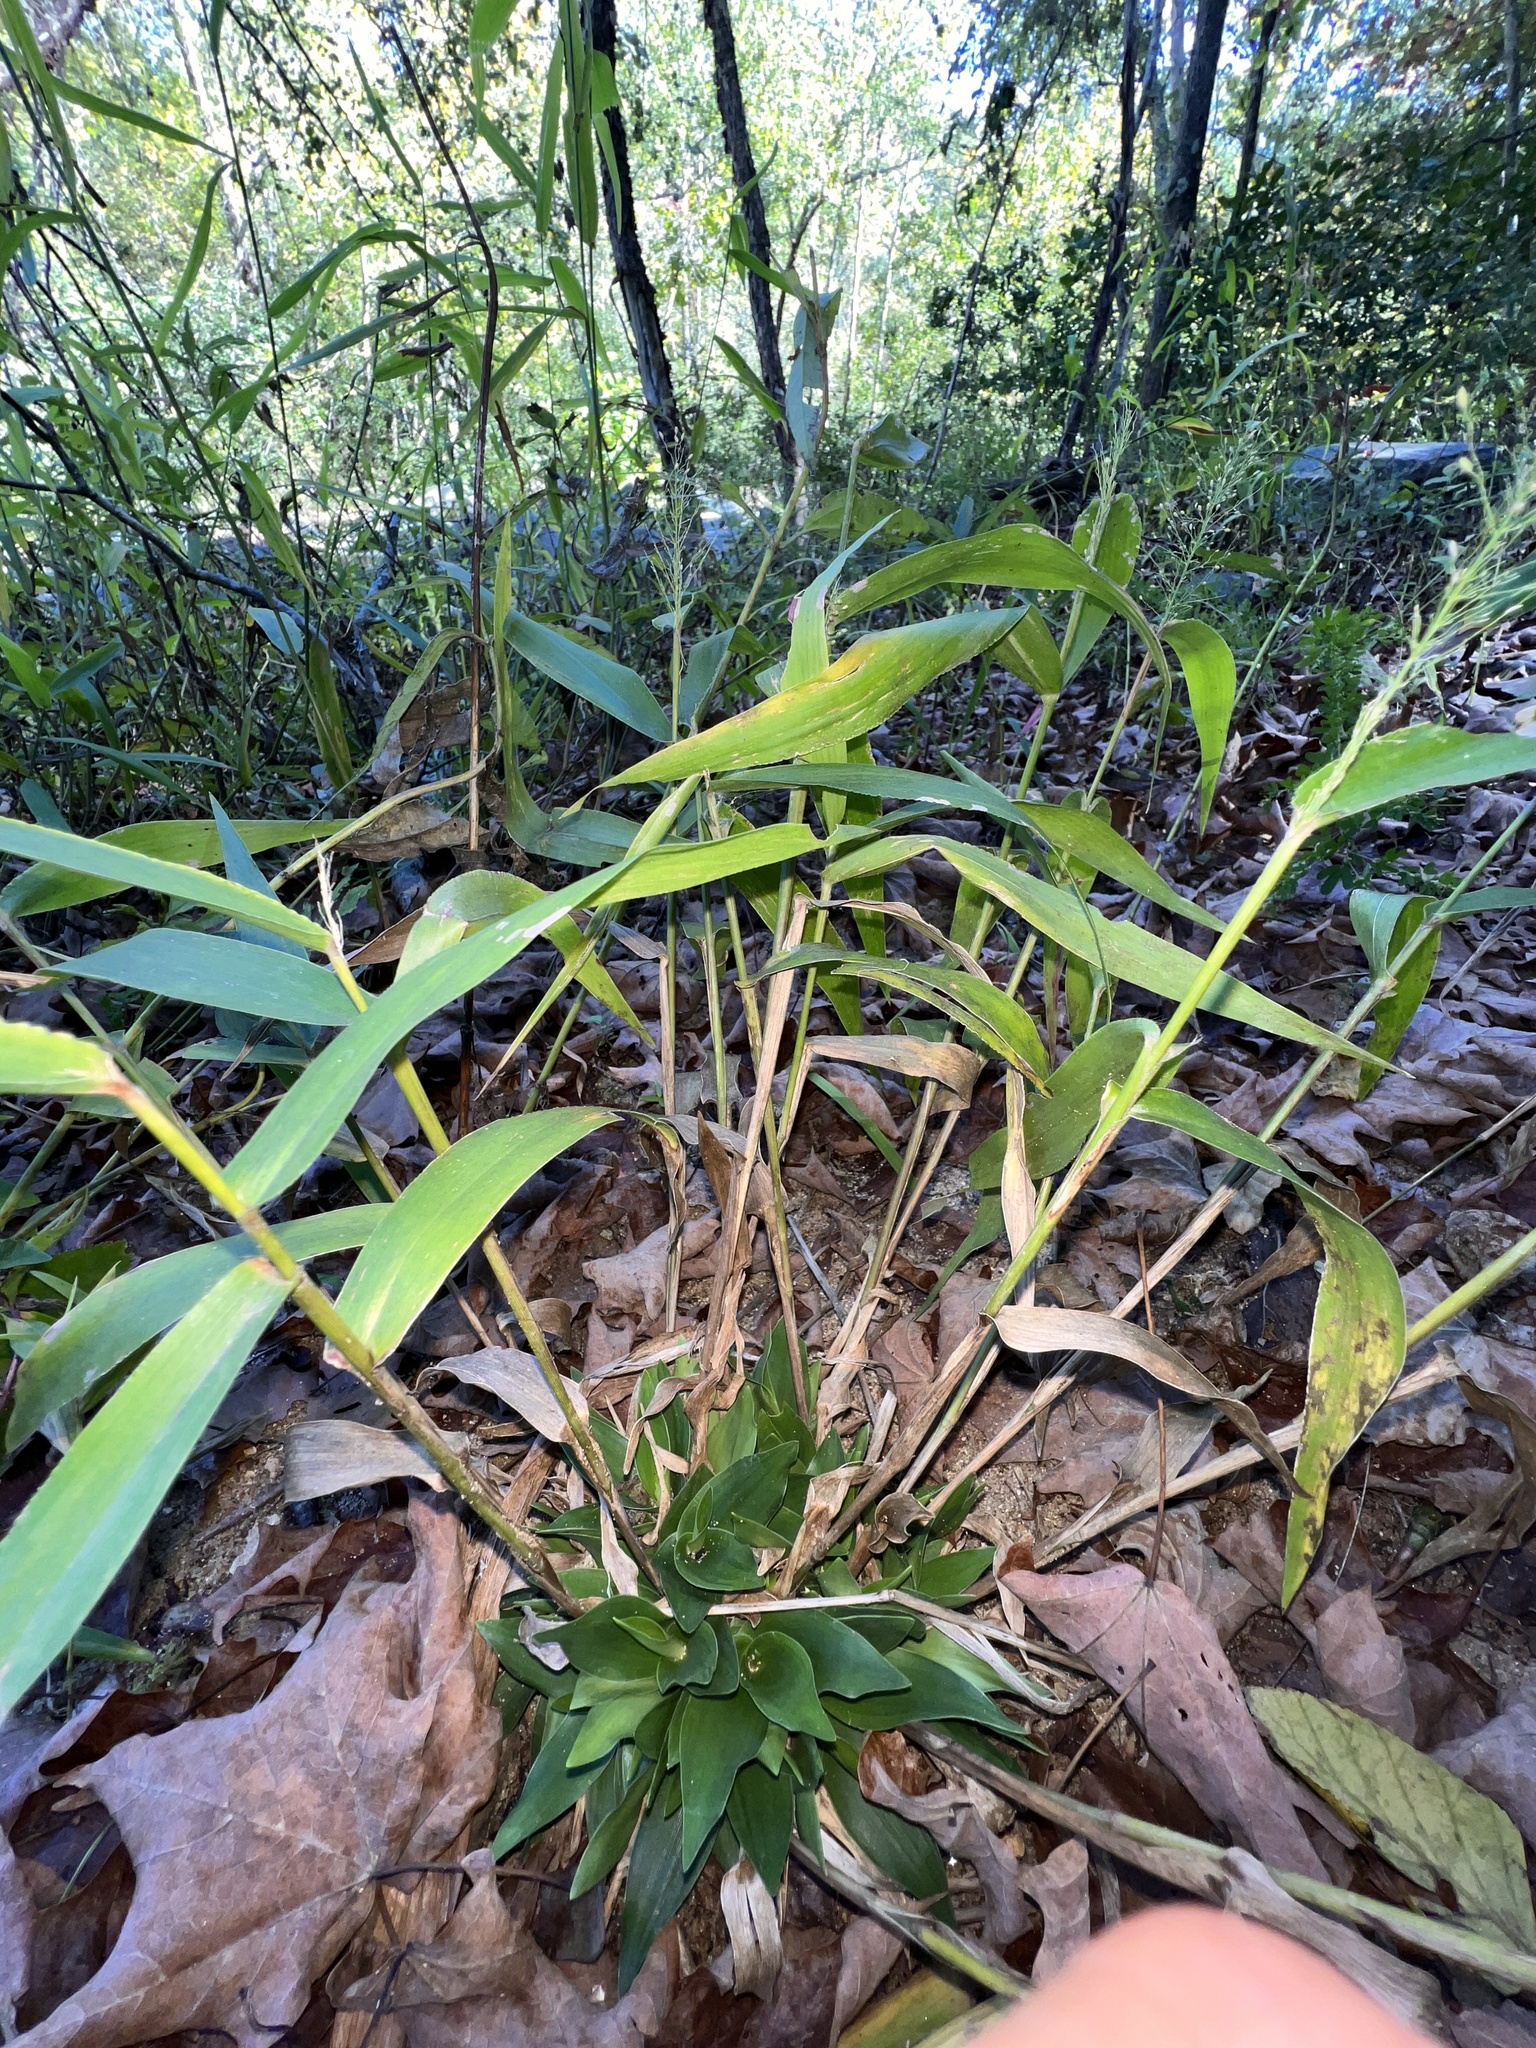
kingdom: Plantae
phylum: Tracheophyta
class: Liliopsida
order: Poales
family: Poaceae
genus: Dichanthelium
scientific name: Dichanthelium polyanthes
